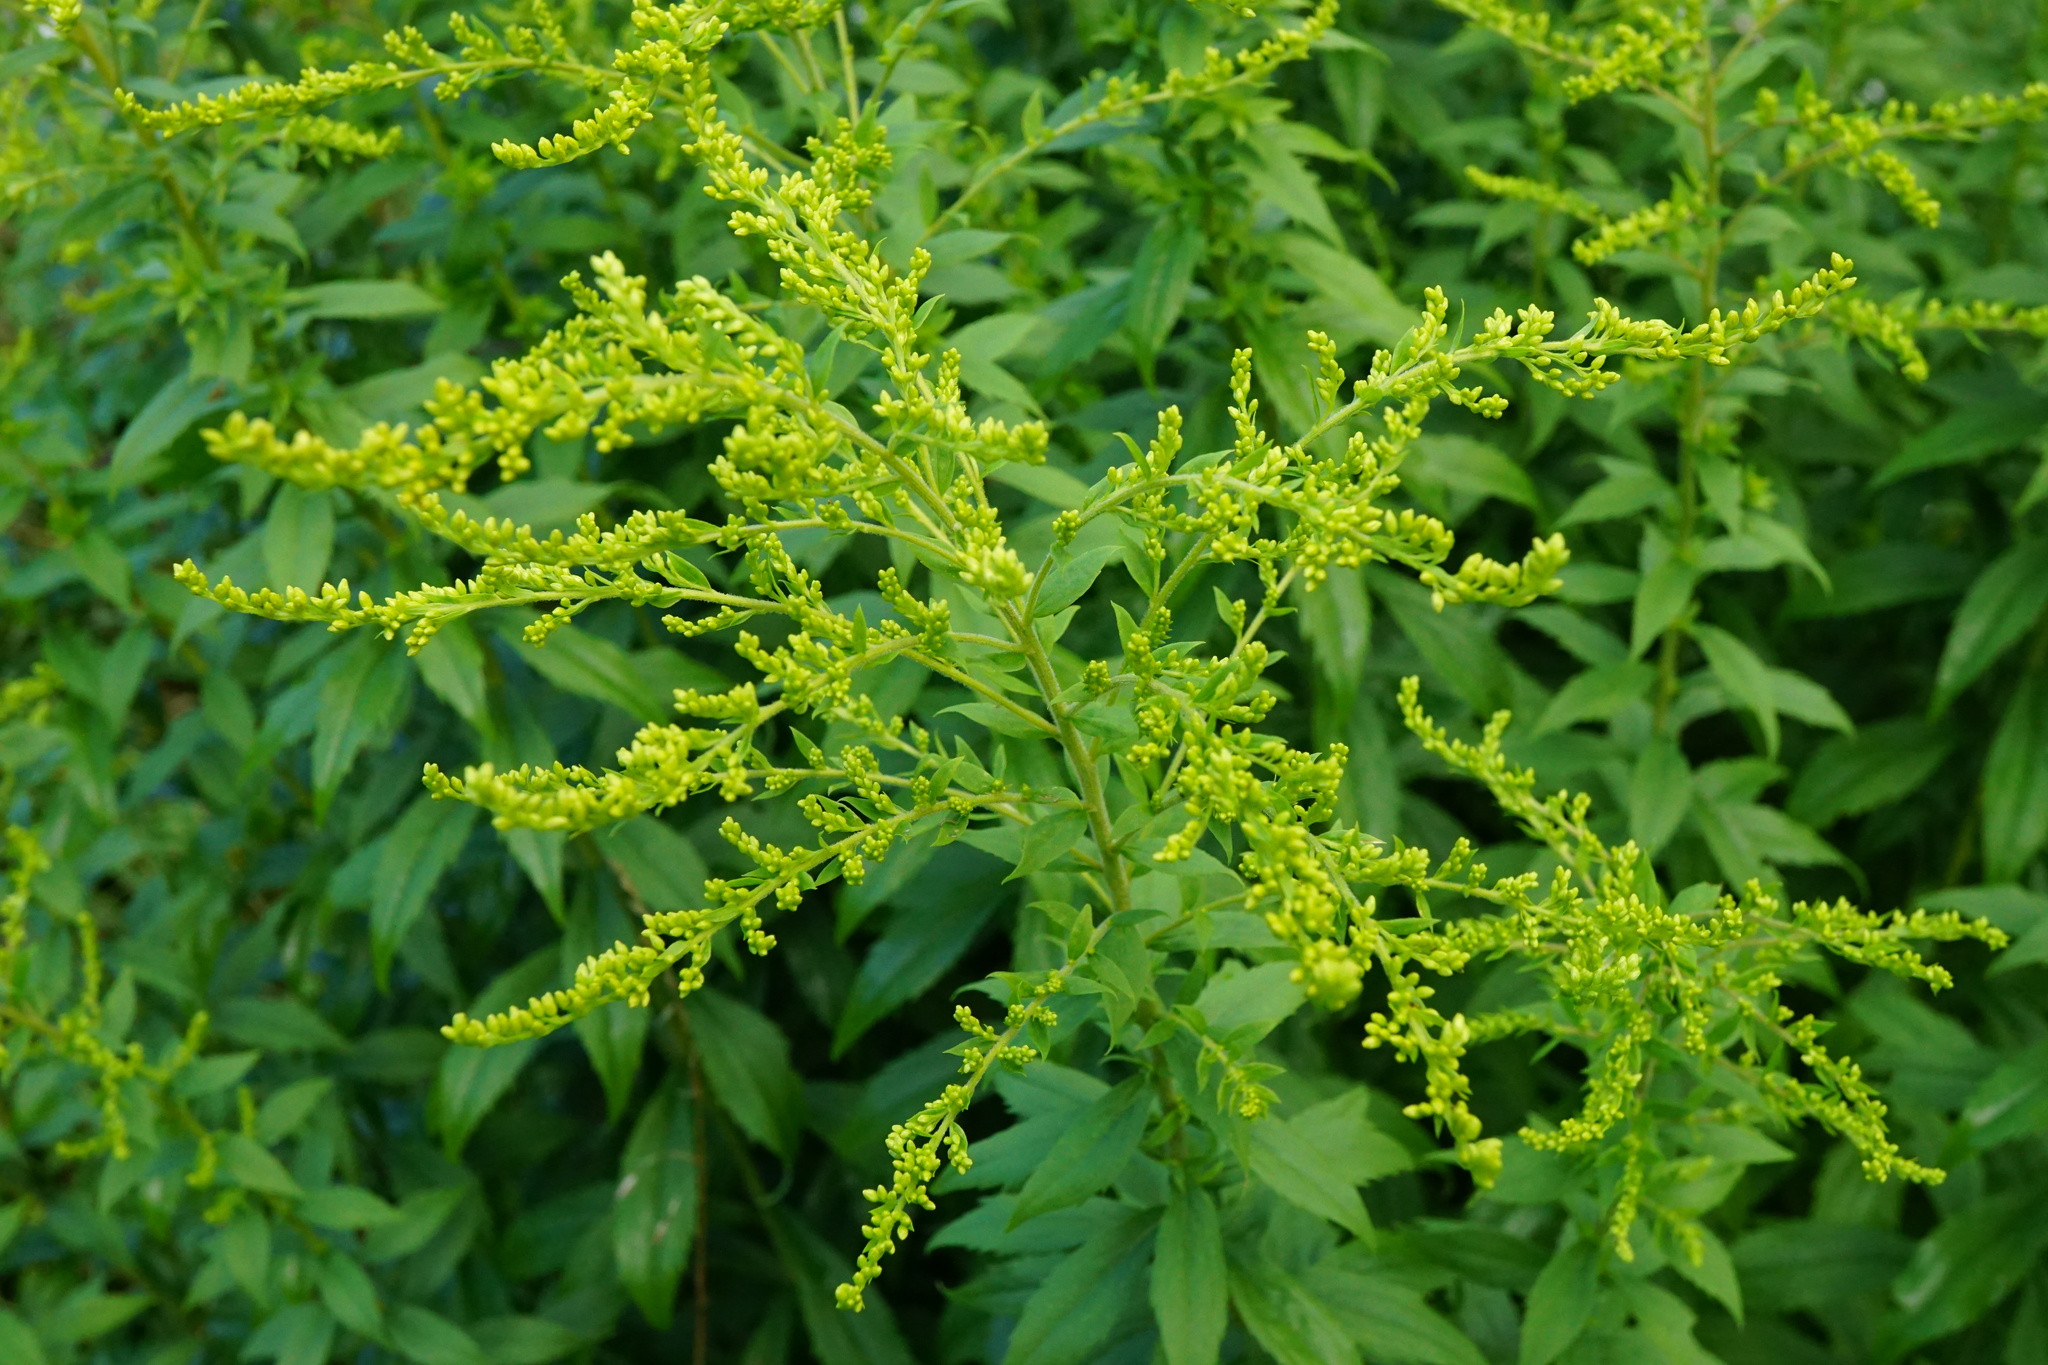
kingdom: Plantae
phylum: Tracheophyta
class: Magnoliopsida
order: Asterales
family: Asteraceae
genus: Solidago
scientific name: Solidago canadensis
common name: Canada goldenrod
